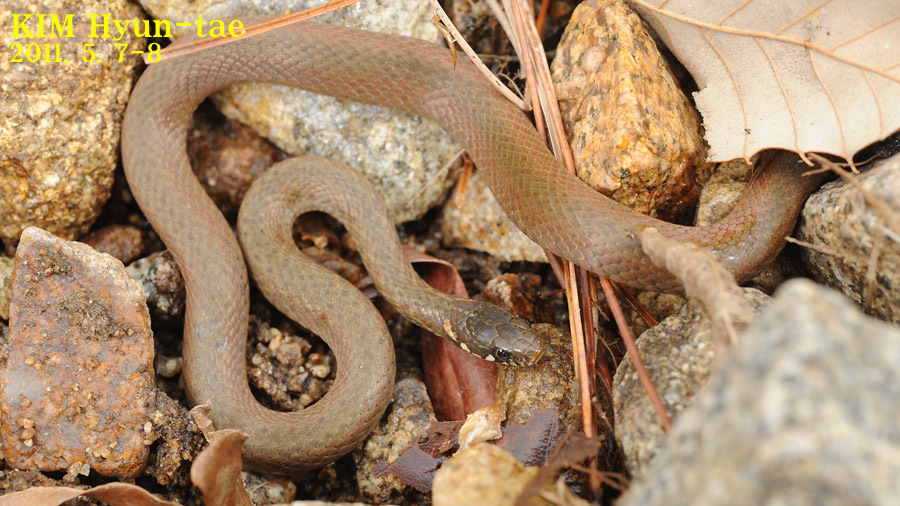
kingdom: Animalia
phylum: Chordata
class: Squamata
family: Colubridae
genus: Hebius
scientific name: Hebius vibakari
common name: Japanese keelback
